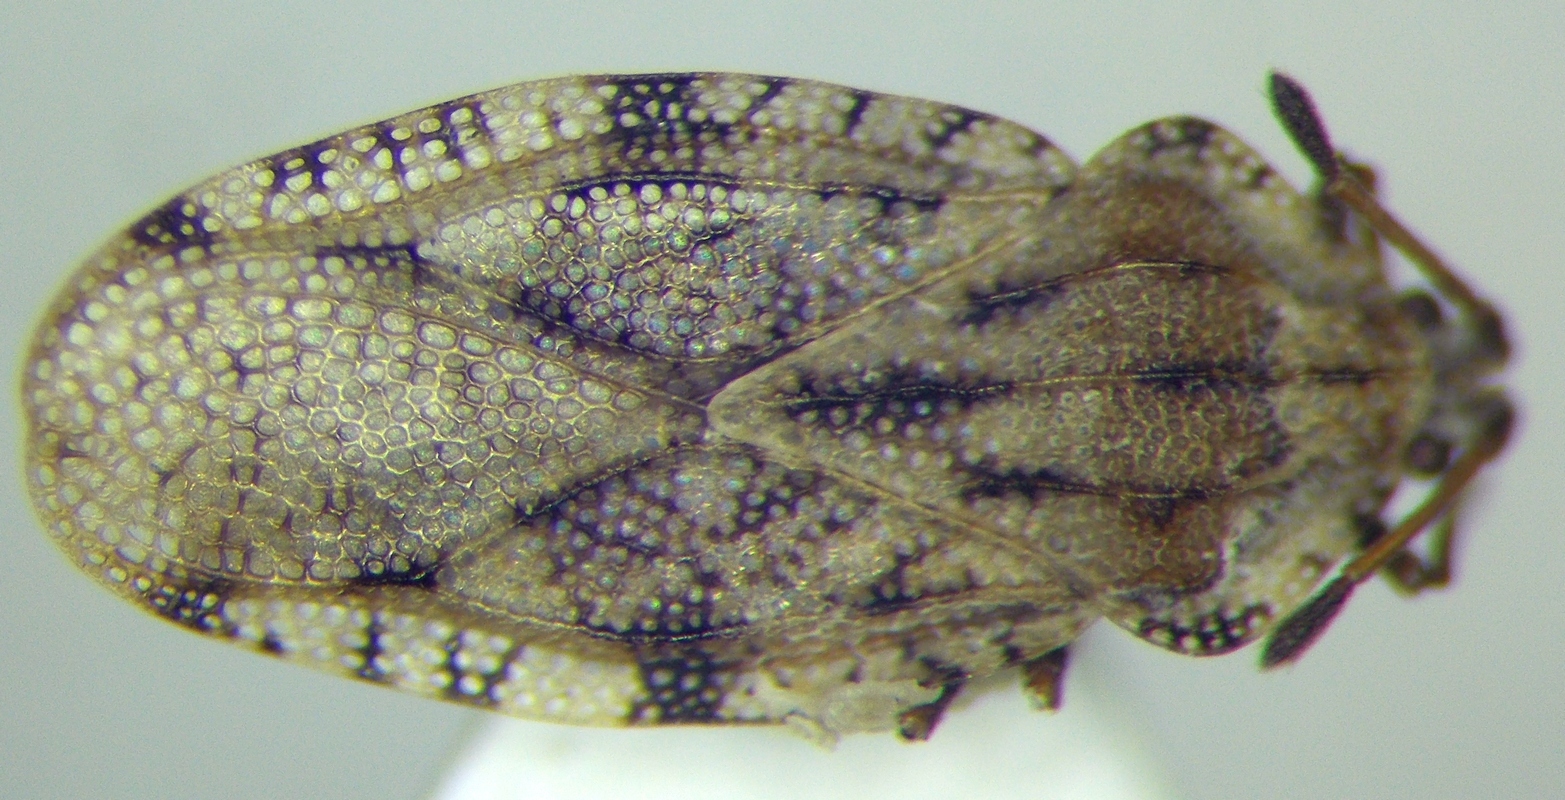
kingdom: Animalia
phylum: Arthropoda
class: Insecta
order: Hemiptera
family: Tingidae
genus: Tingis
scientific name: Tingis cardui
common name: Spear thistle lacebug
